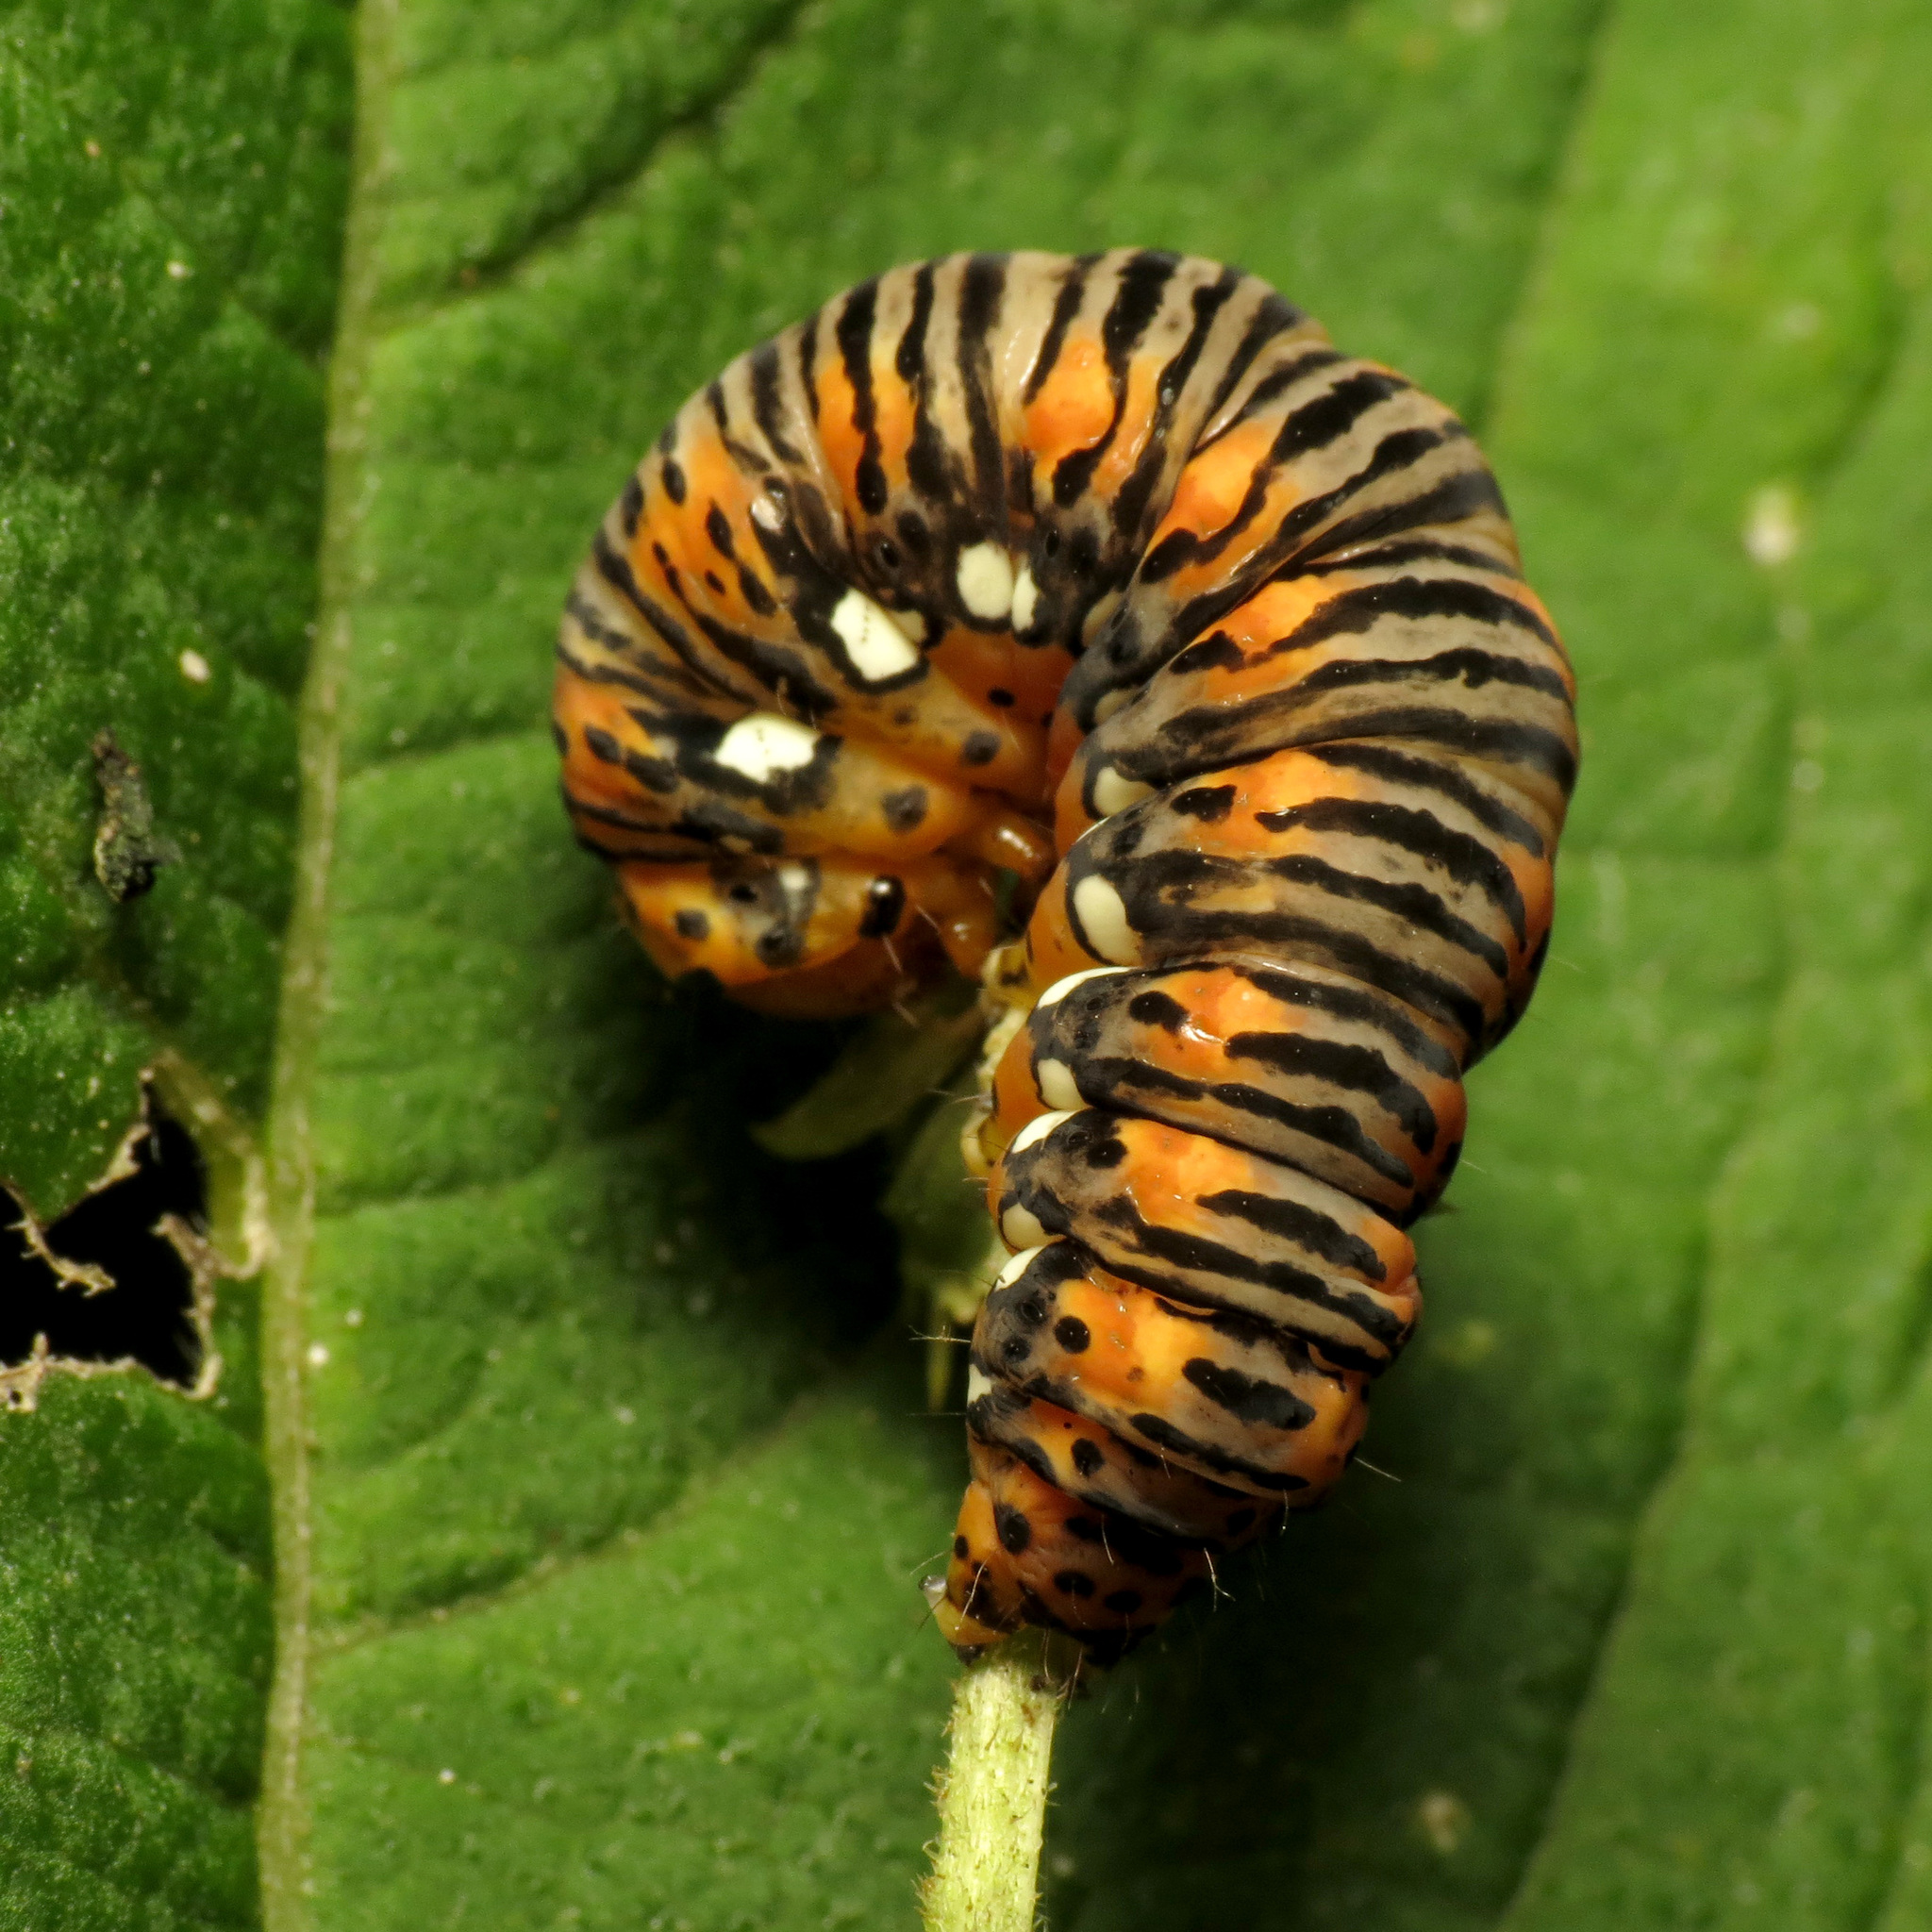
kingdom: Animalia
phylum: Arthropoda
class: Insecta
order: Lepidoptera
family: Noctuidae
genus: Basilodes
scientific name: Basilodes pepita
